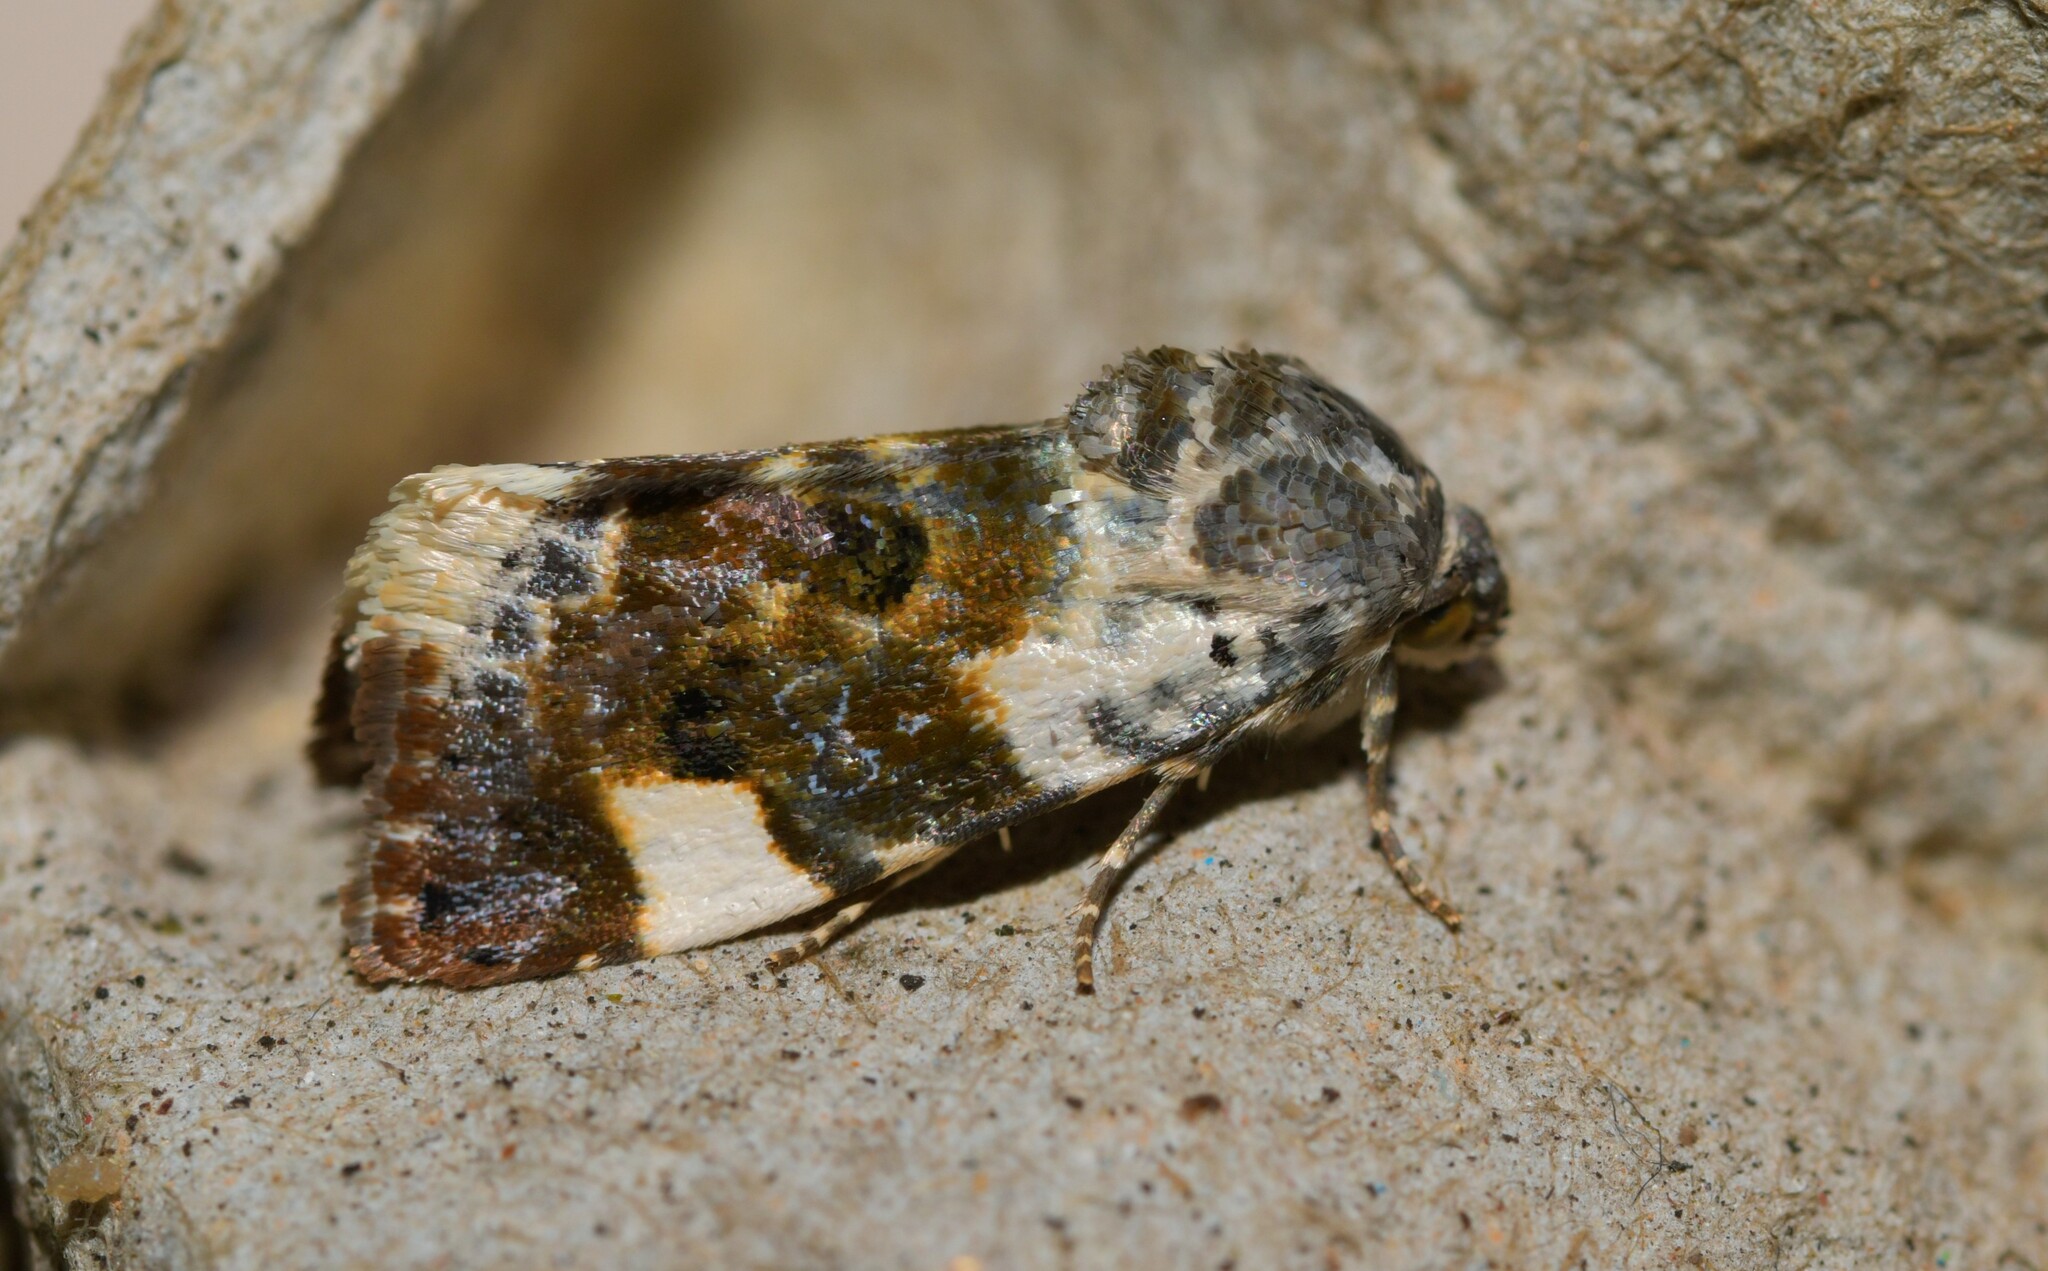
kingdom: Animalia
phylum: Arthropoda
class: Insecta
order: Lepidoptera
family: Noctuidae
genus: Acontia
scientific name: Acontia lucida
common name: Pale shoulder
